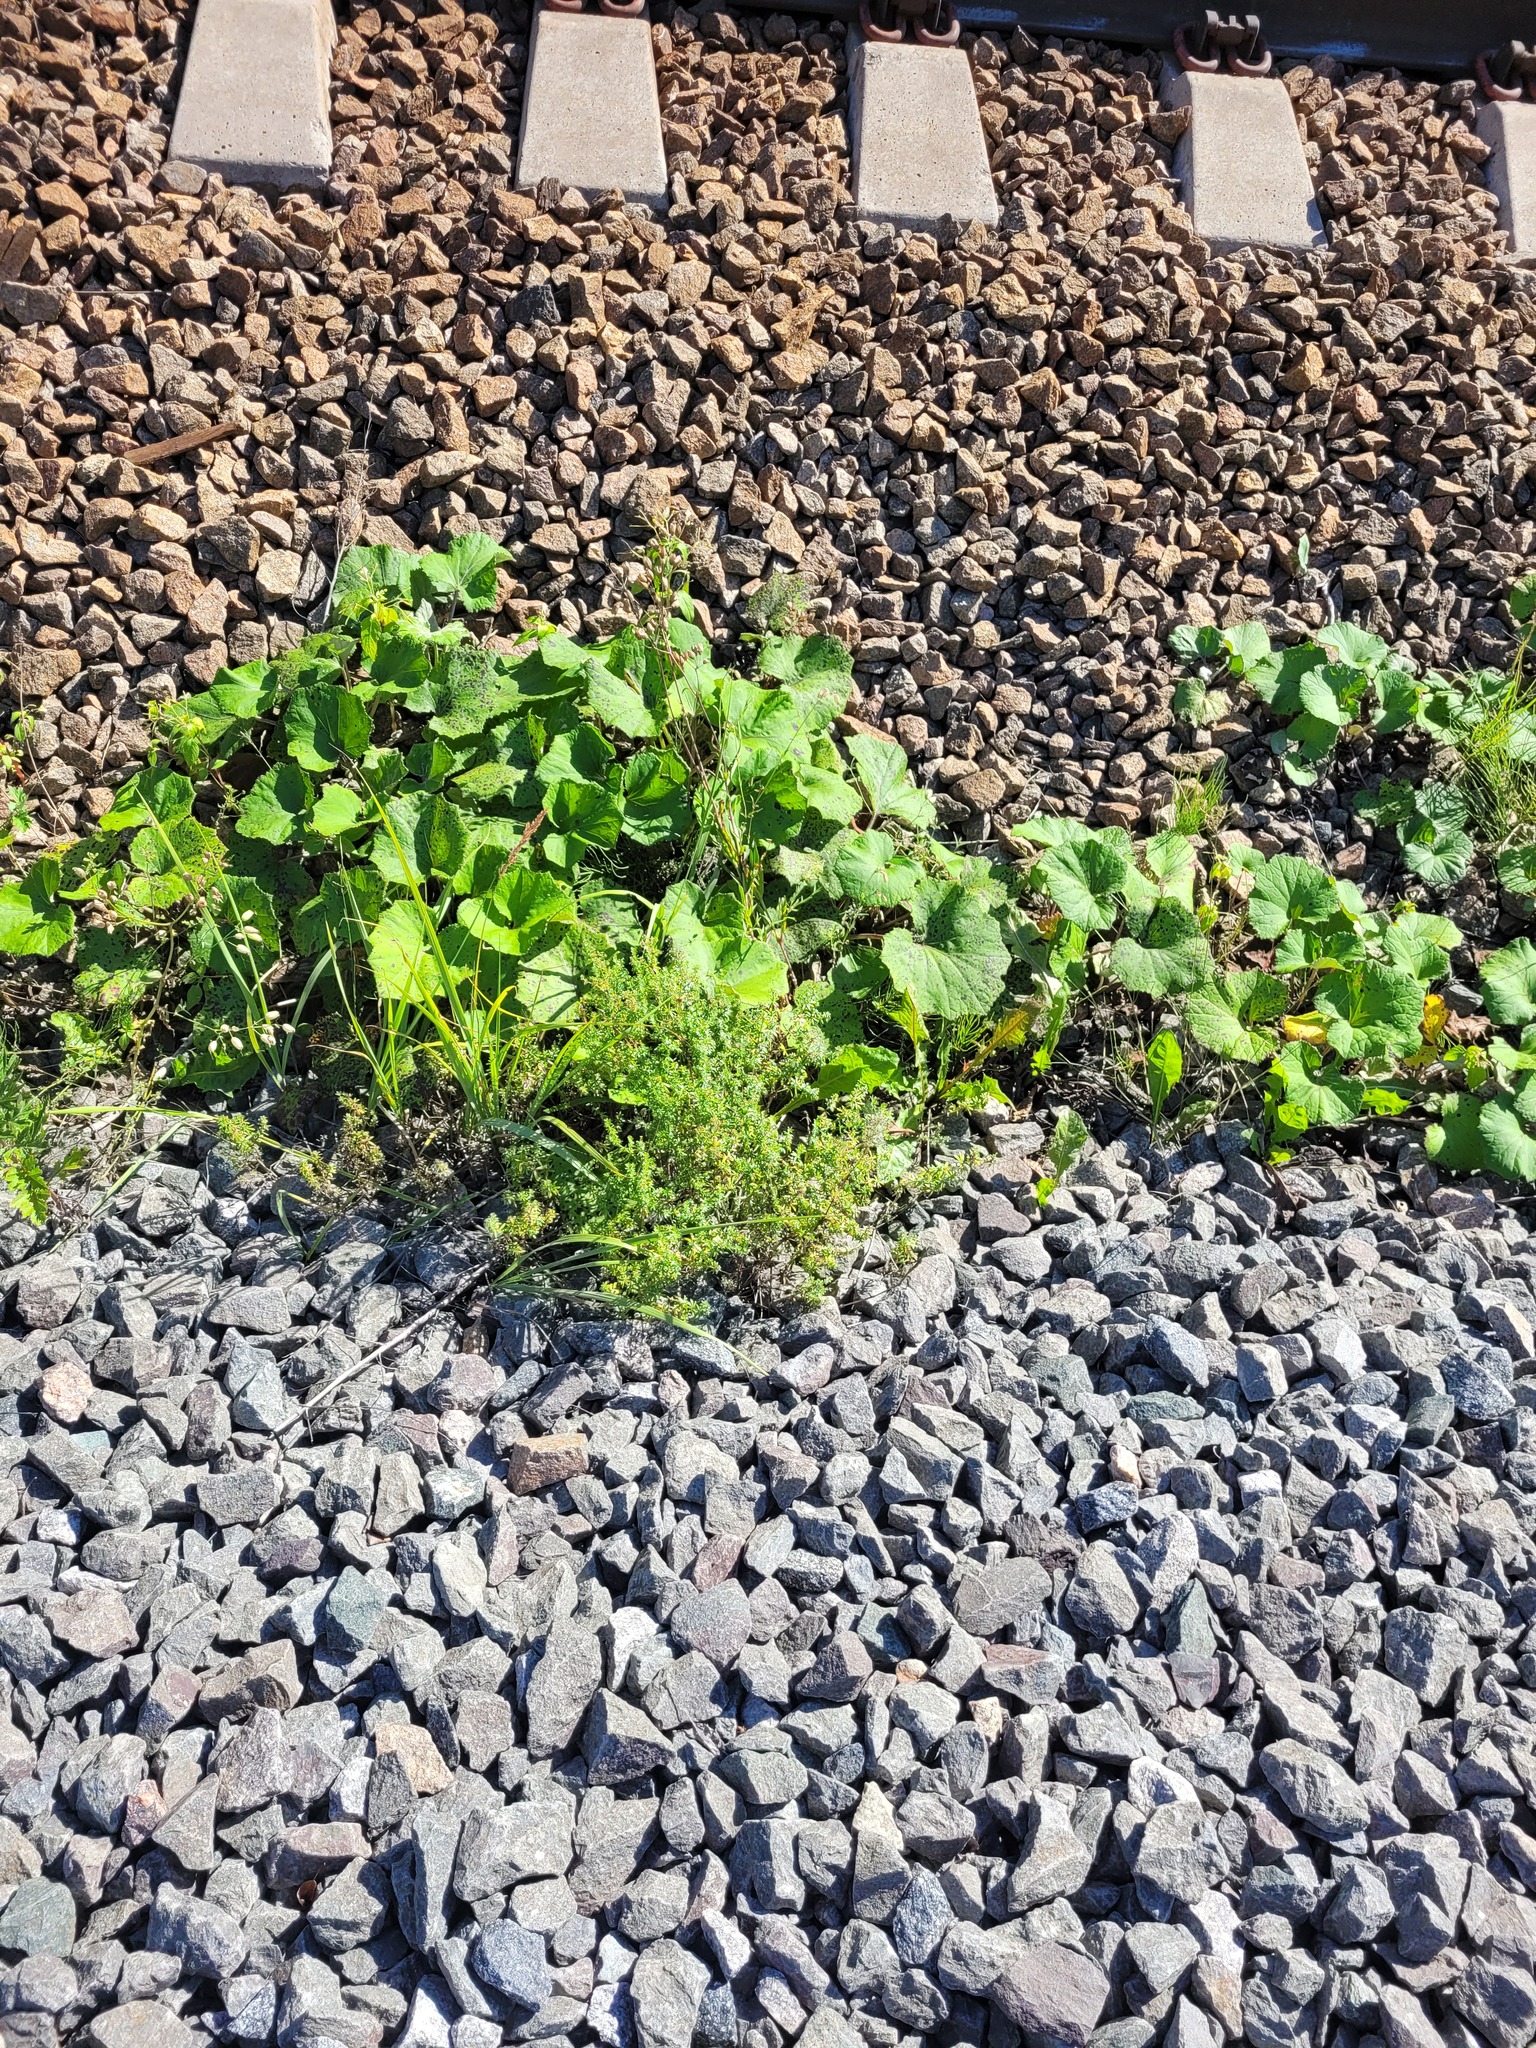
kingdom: Plantae
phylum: Tracheophyta
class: Magnoliopsida
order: Asterales
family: Asteraceae
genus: Tussilago
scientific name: Tussilago farfara
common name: Coltsfoot
